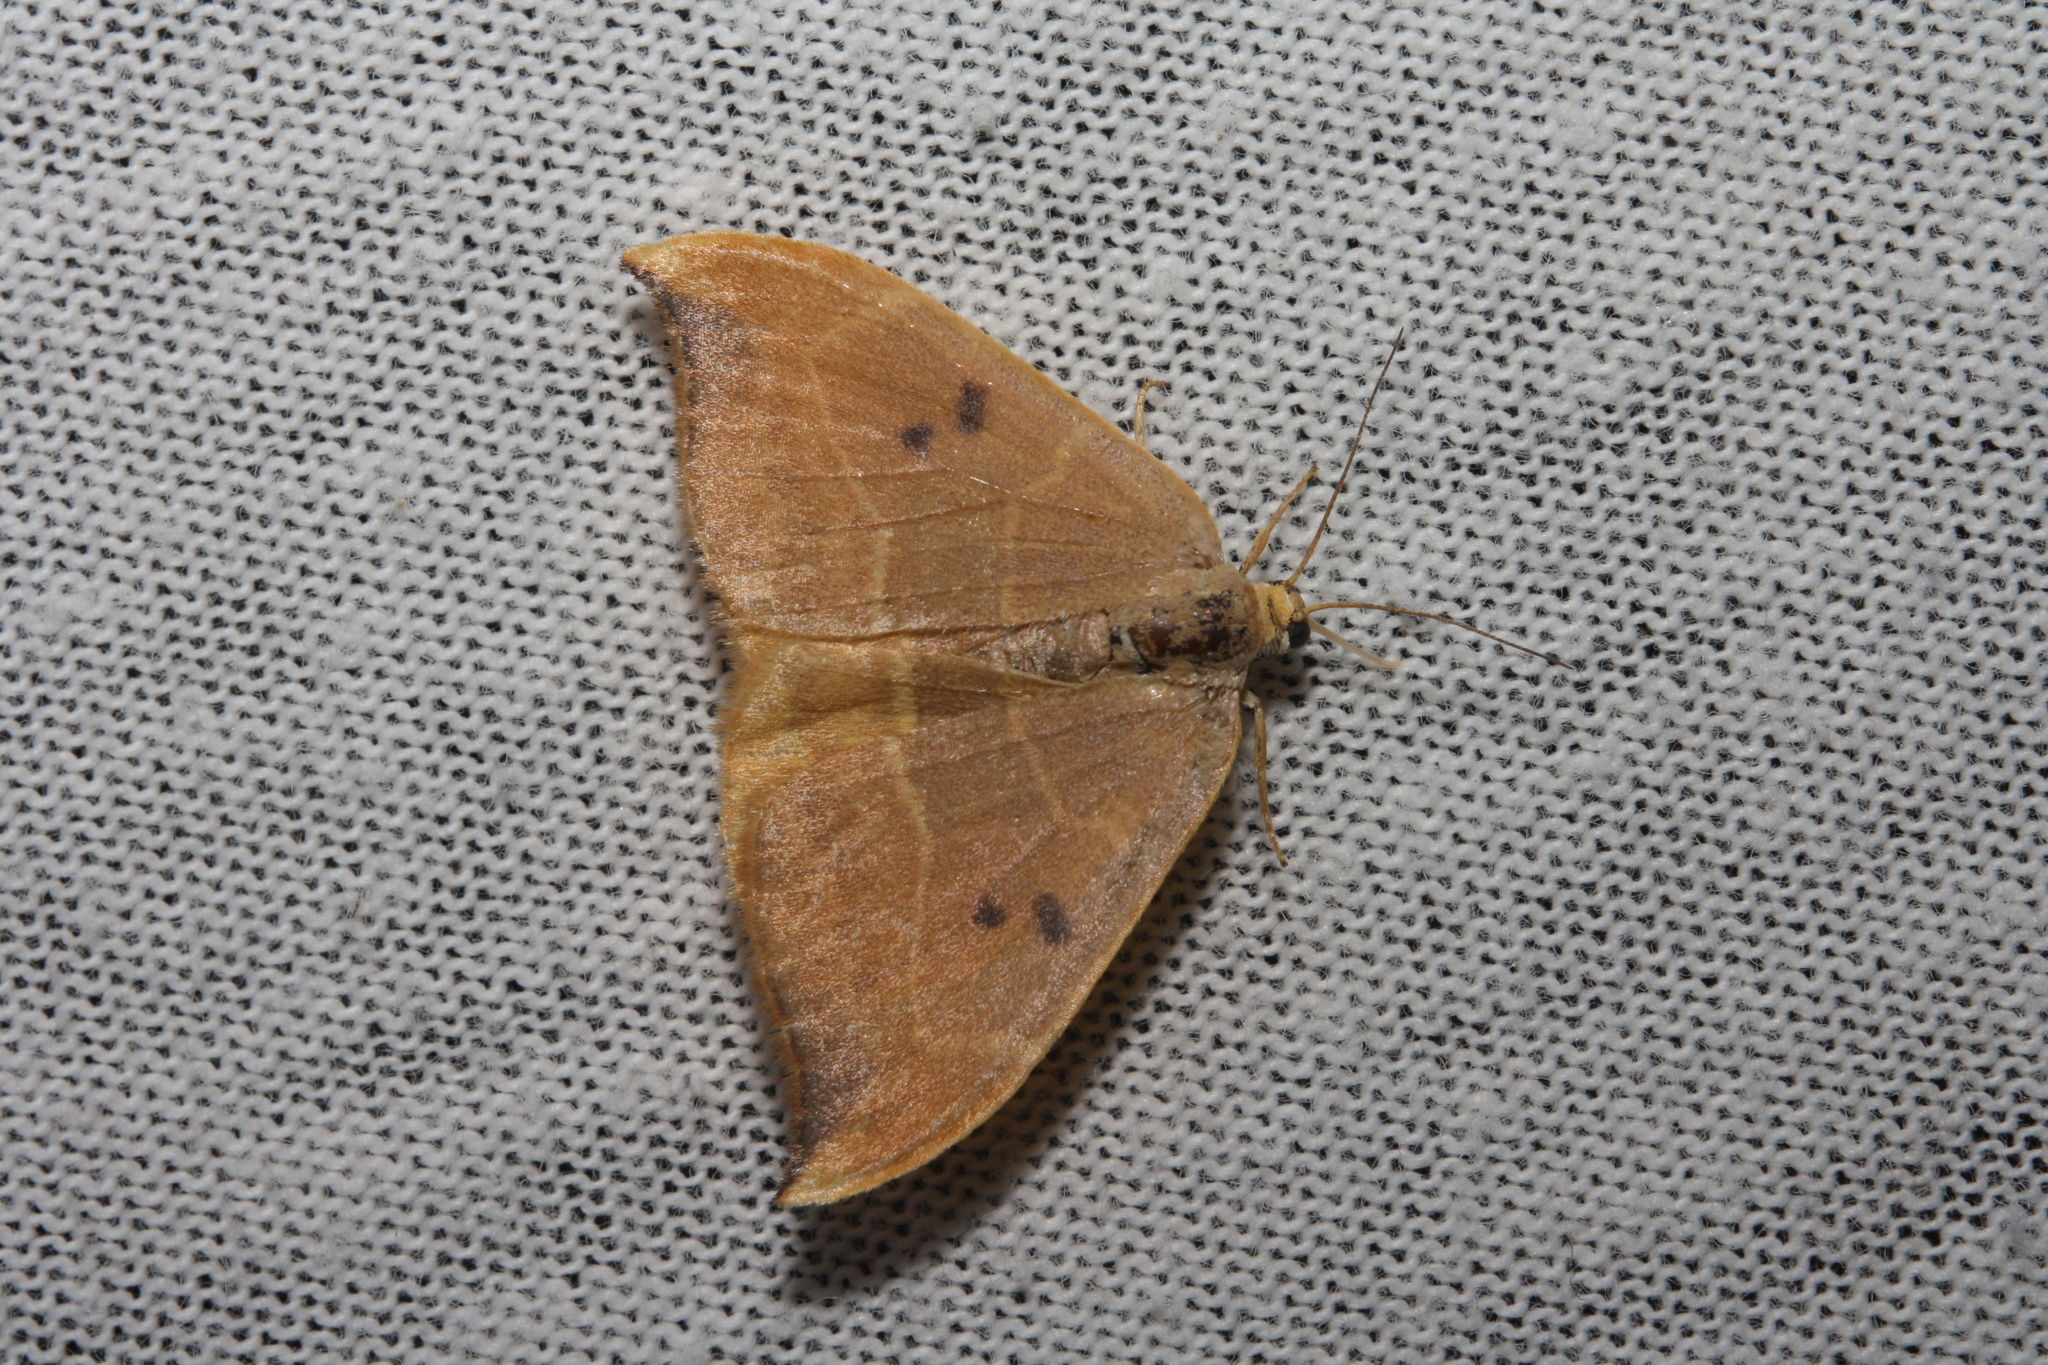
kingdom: Animalia
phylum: Arthropoda
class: Insecta
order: Lepidoptera
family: Drepanidae
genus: Watsonalla
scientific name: Watsonalla binaria
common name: Oak hook-tip
